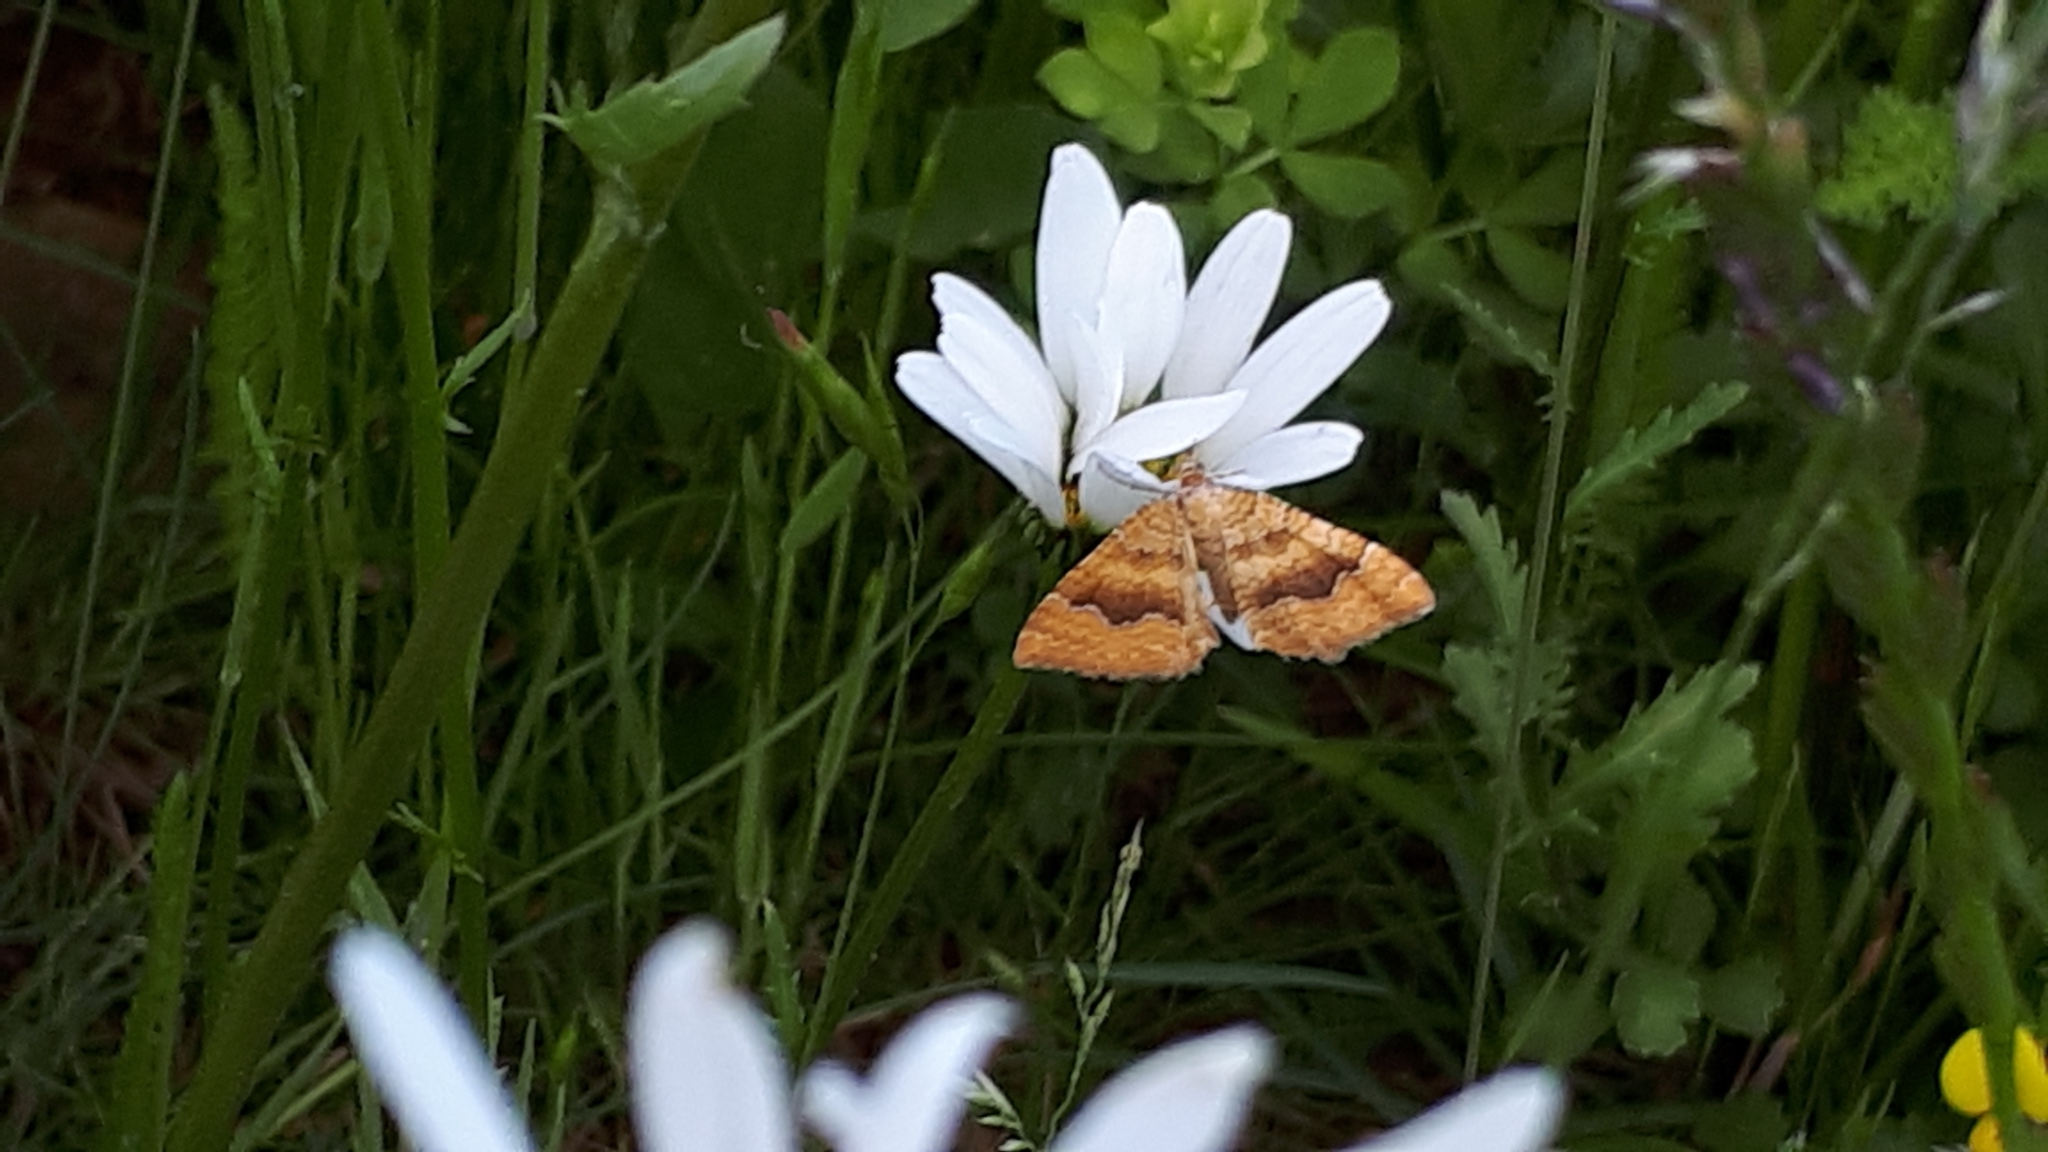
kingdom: Animalia
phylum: Arthropoda
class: Insecta
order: Lepidoptera
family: Geometridae
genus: Camptogramma
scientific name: Camptogramma bilineata
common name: Yellow shell
